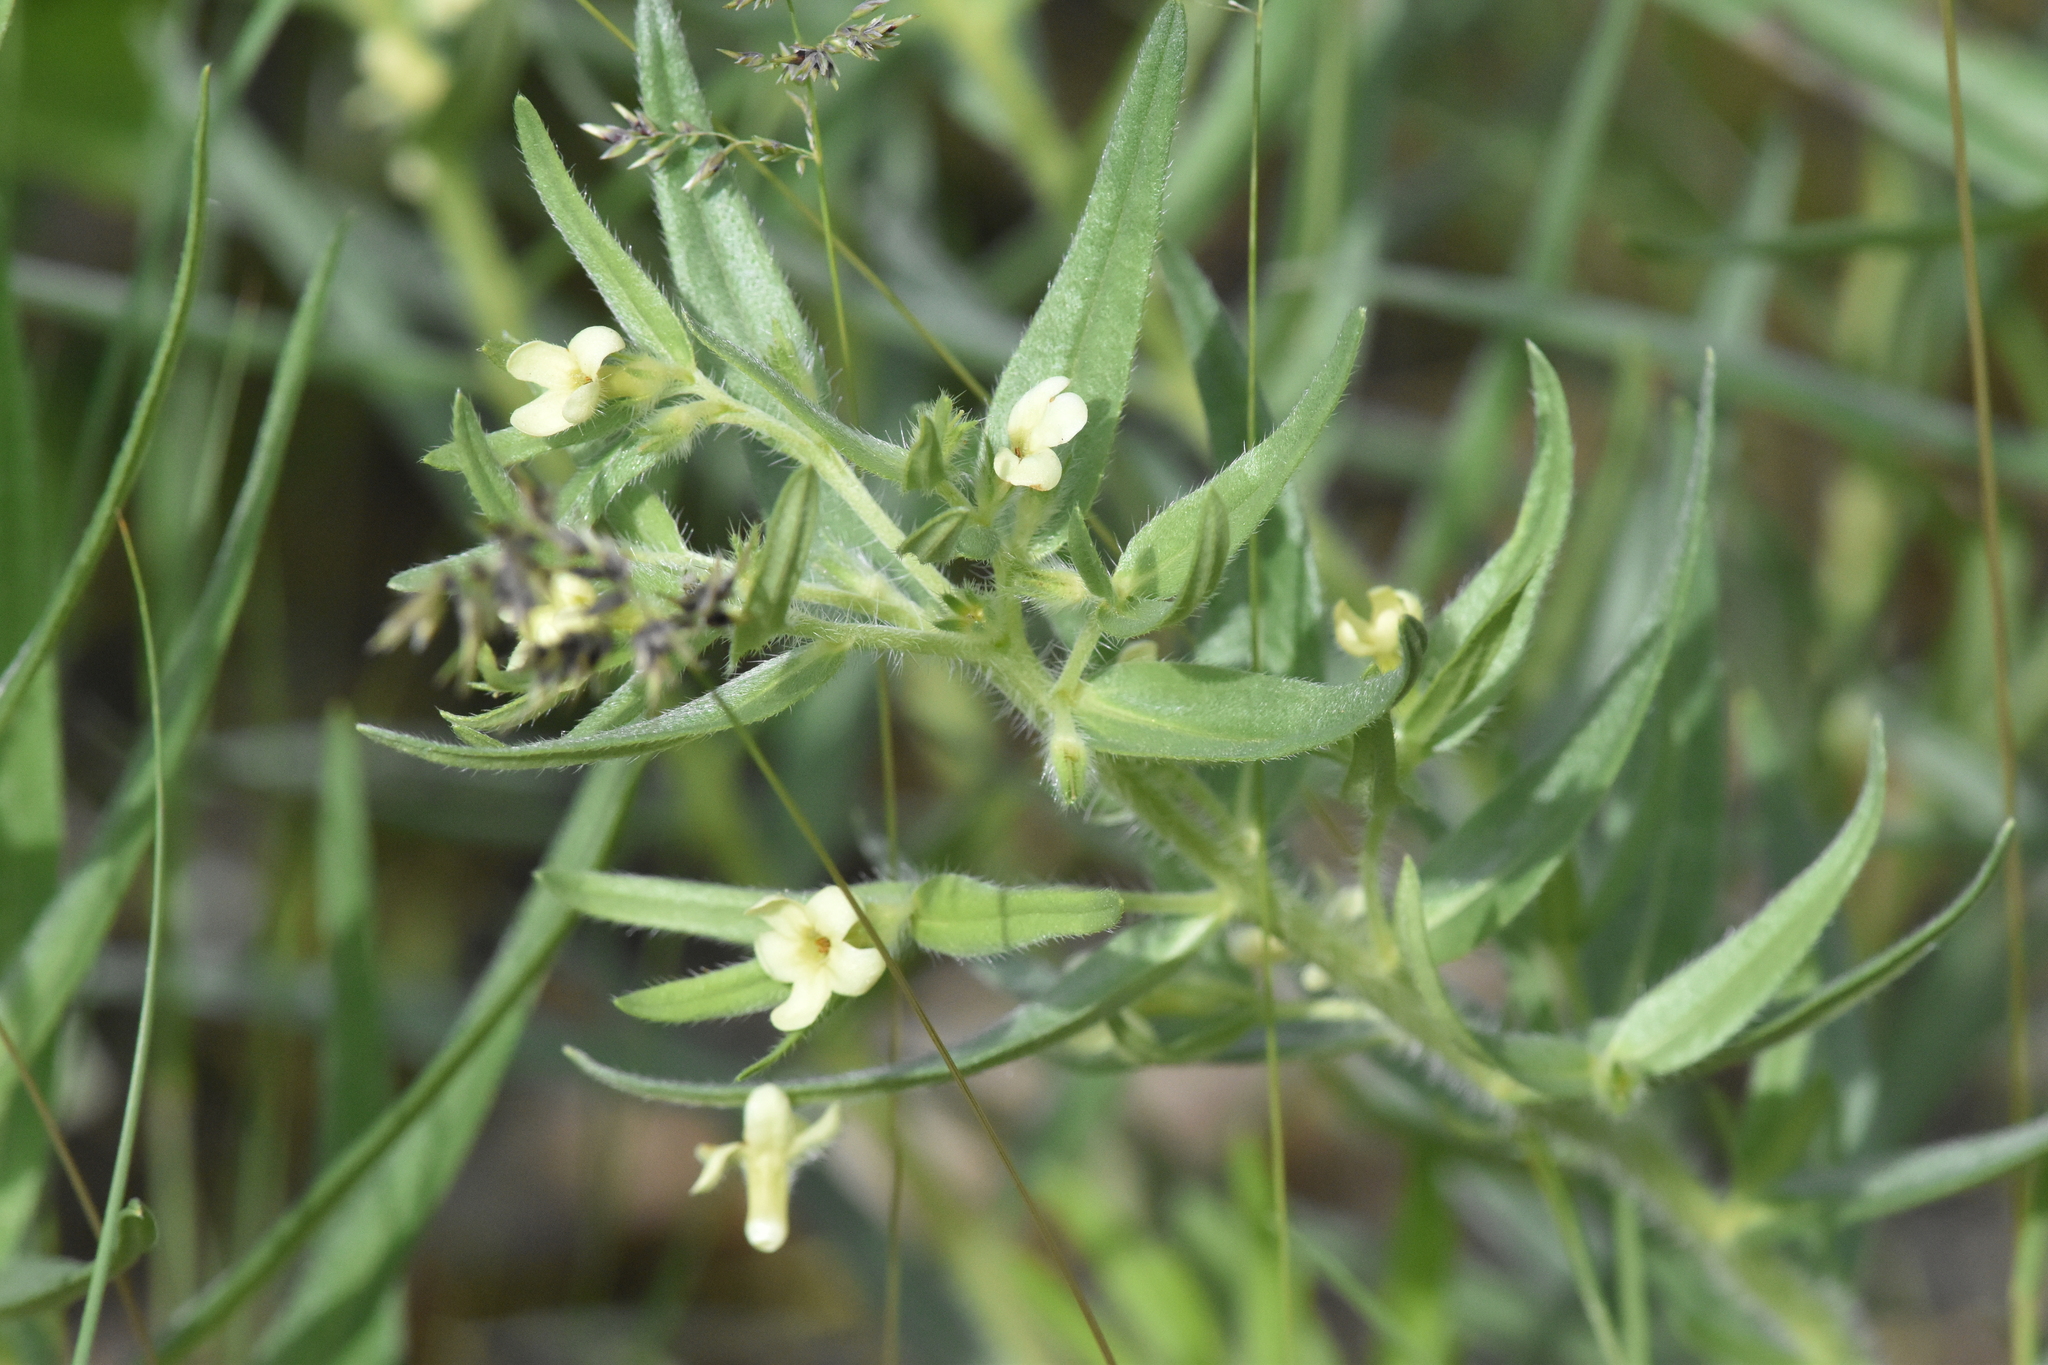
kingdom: Plantae
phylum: Tracheophyta
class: Magnoliopsida
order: Boraginales
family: Boraginaceae
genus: Lithospermum
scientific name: Lithospermum ruderale
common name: Western gromwell
